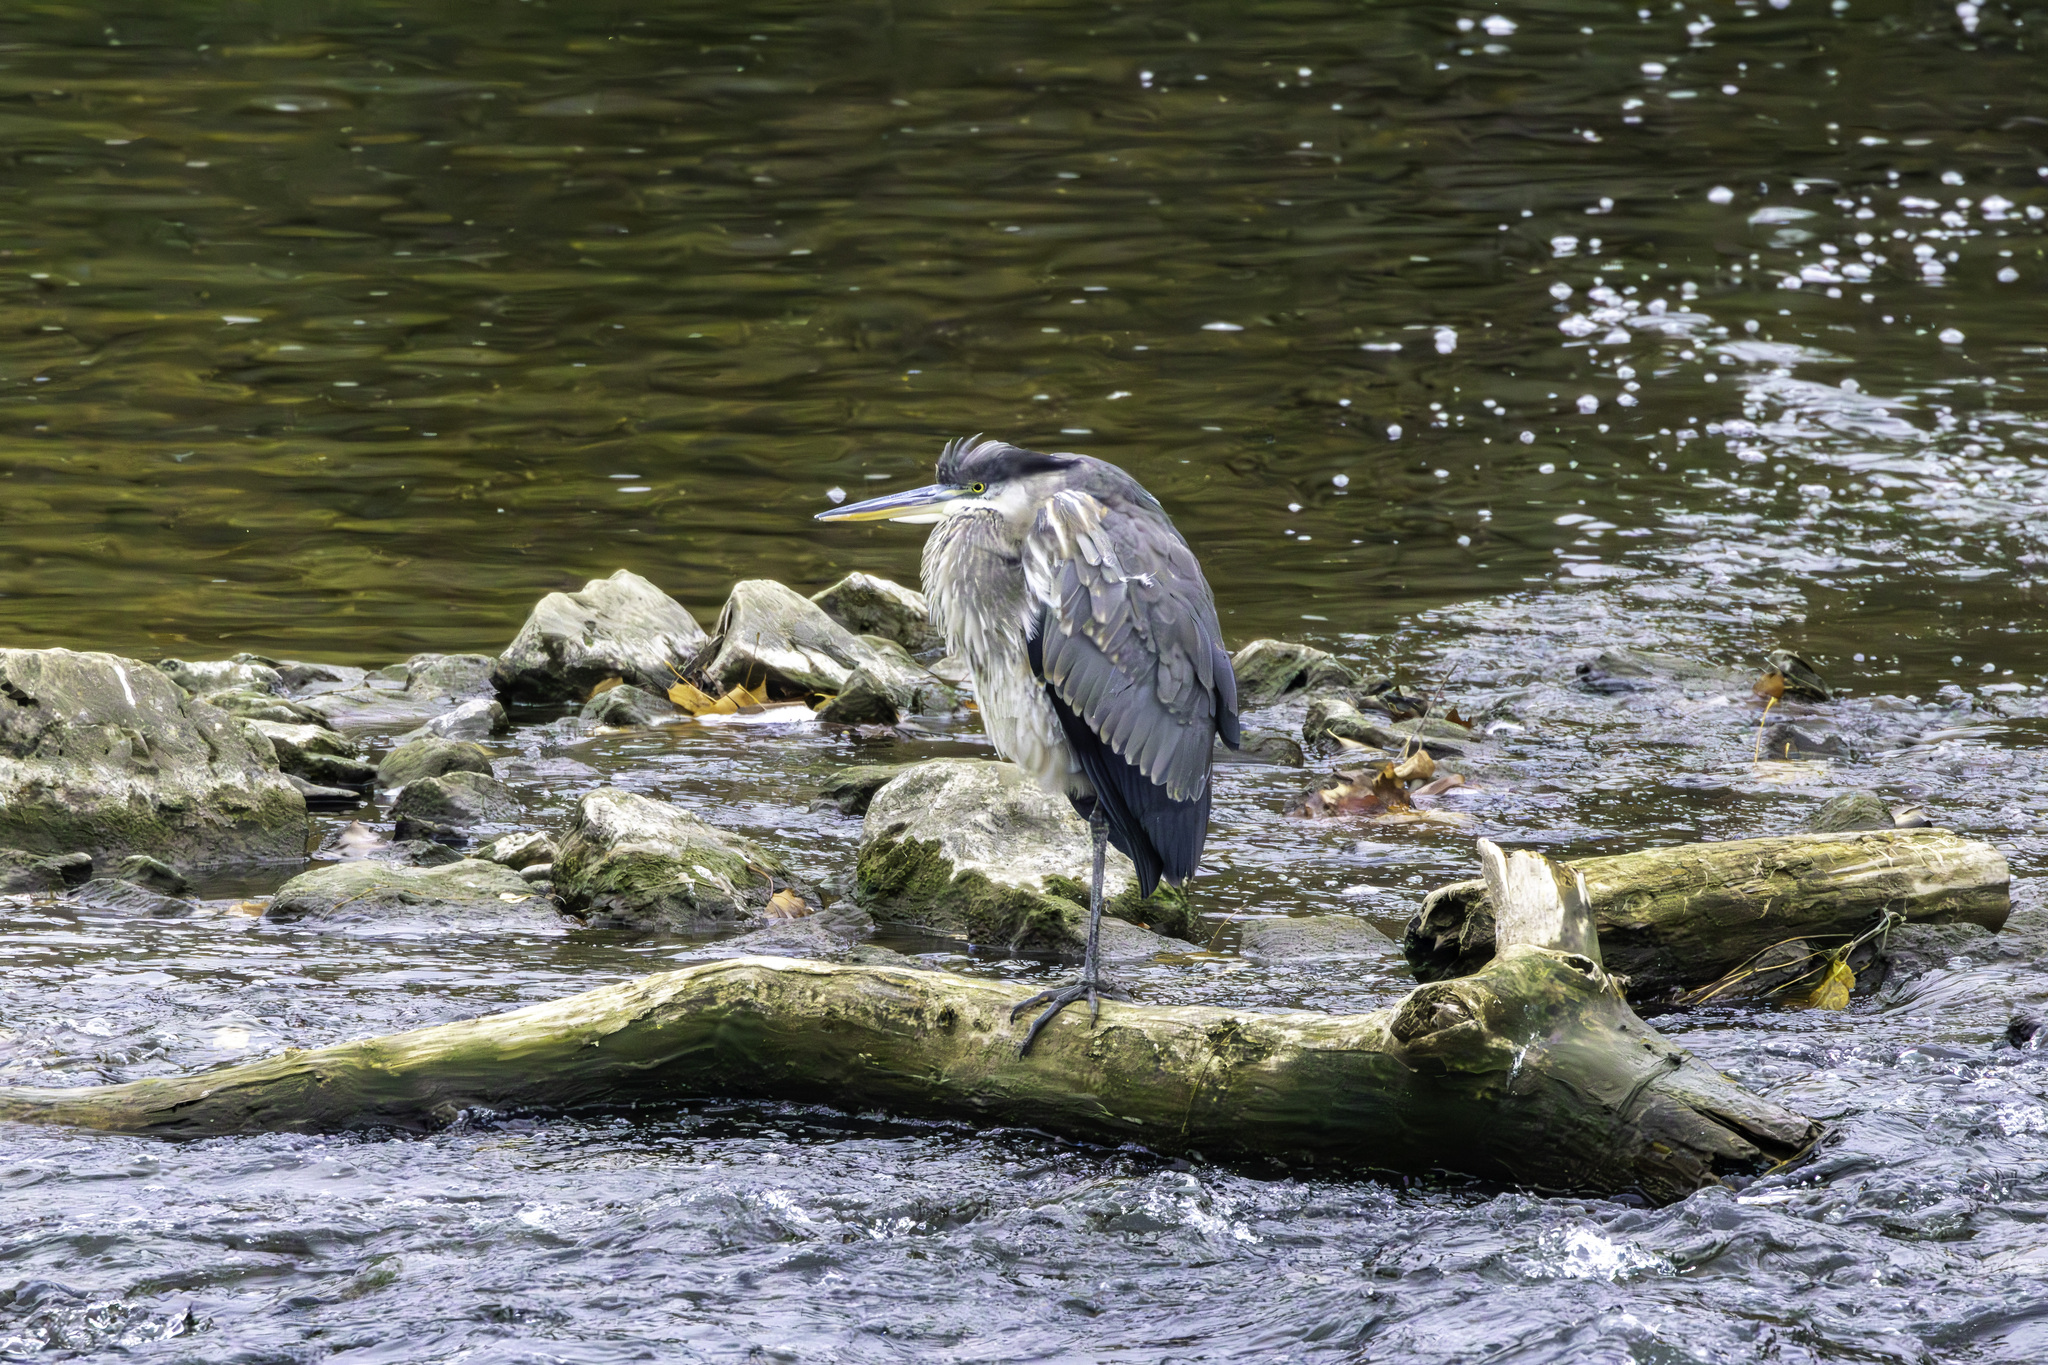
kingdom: Animalia
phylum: Chordata
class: Aves
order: Pelecaniformes
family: Ardeidae
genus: Ardea
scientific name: Ardea herodias
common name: Great blue heron
